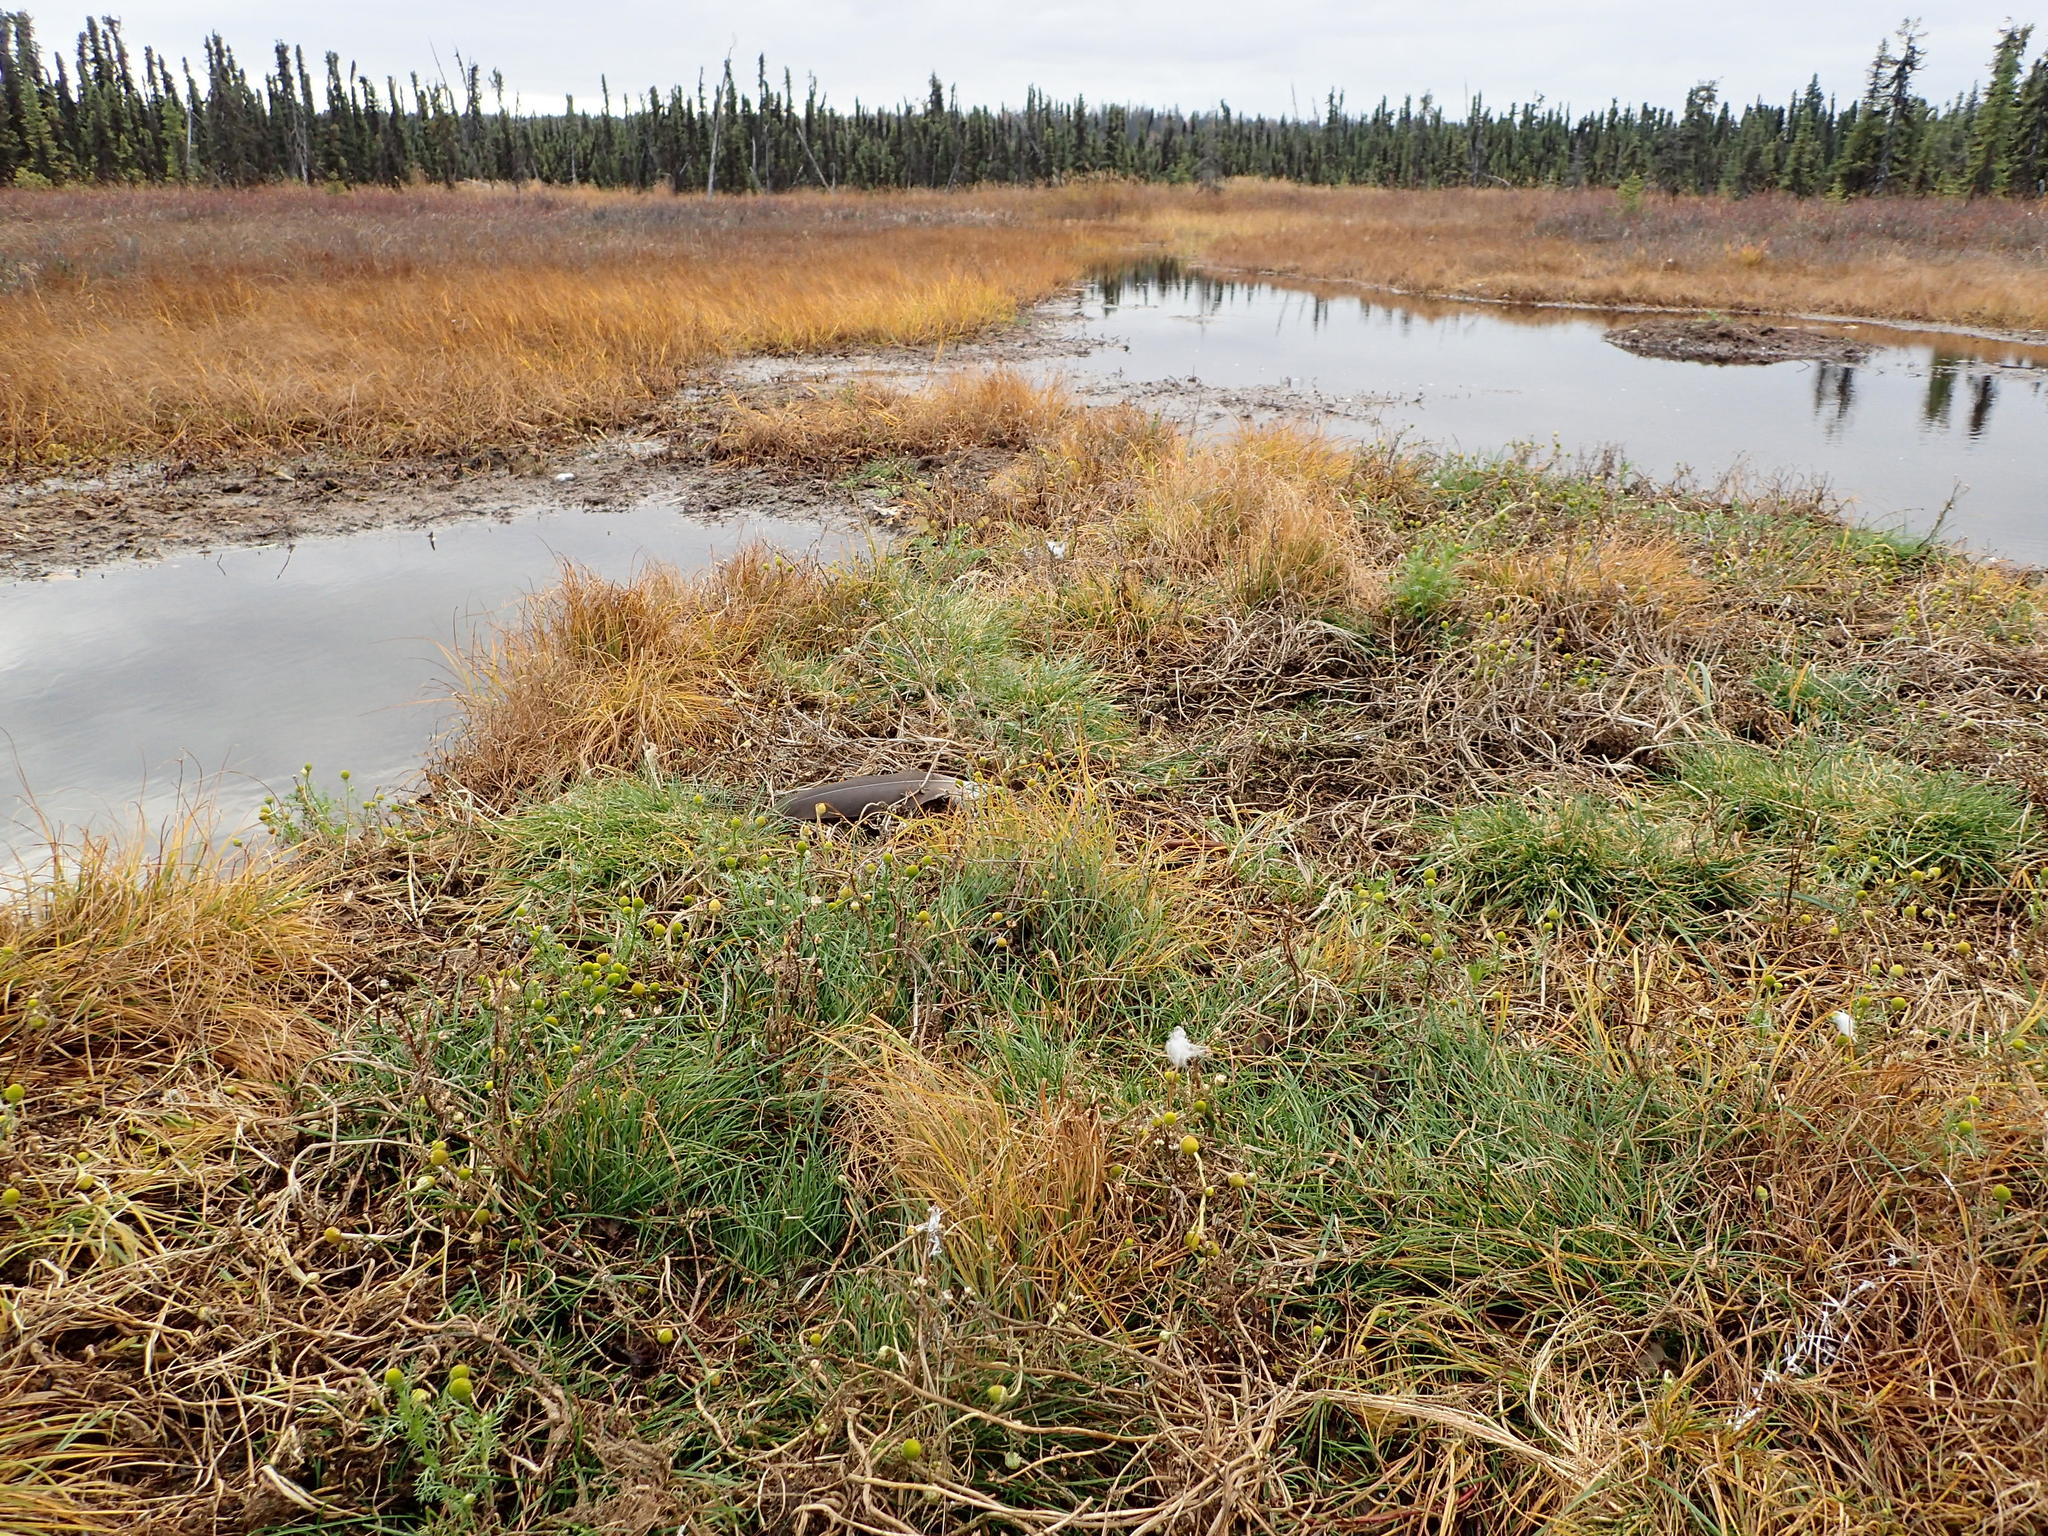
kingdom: Plantae
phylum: Tracheophyta
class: Magnoliopsida
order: Asterales
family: Asteraceae
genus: Matricaria
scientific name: Matricaria discoidea
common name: Disc mayweed
